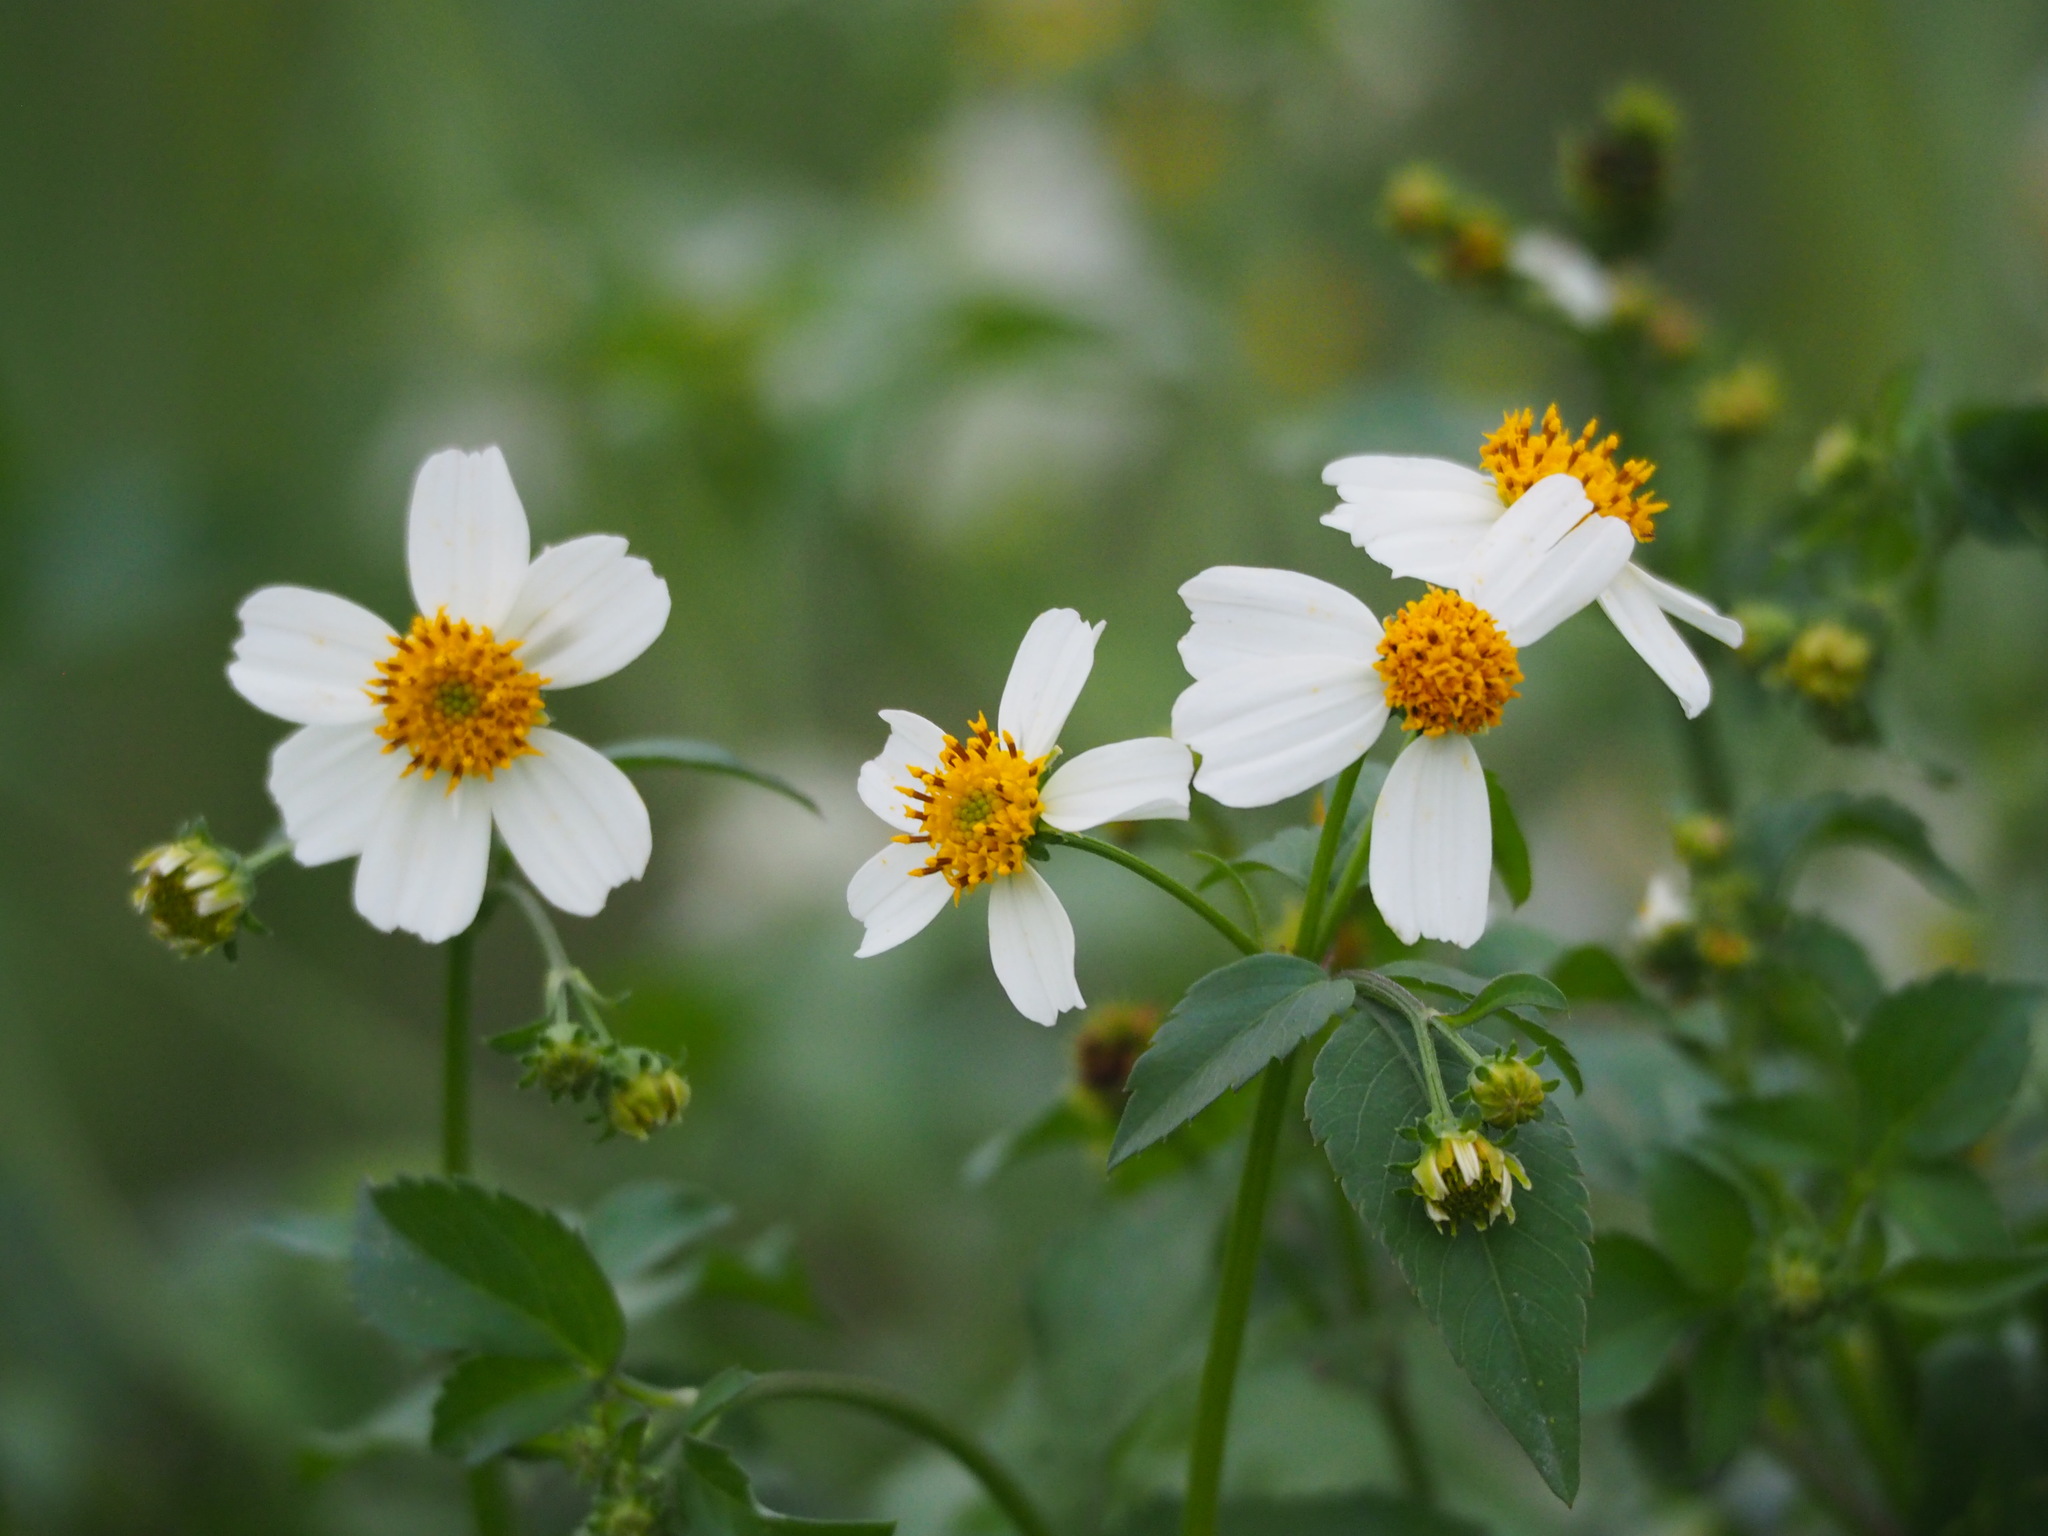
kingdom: Plantae
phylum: Tracheophyta
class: Magnoliopsida
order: Asterales
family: Asteraceae
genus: Bidens
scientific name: Bidens alba
